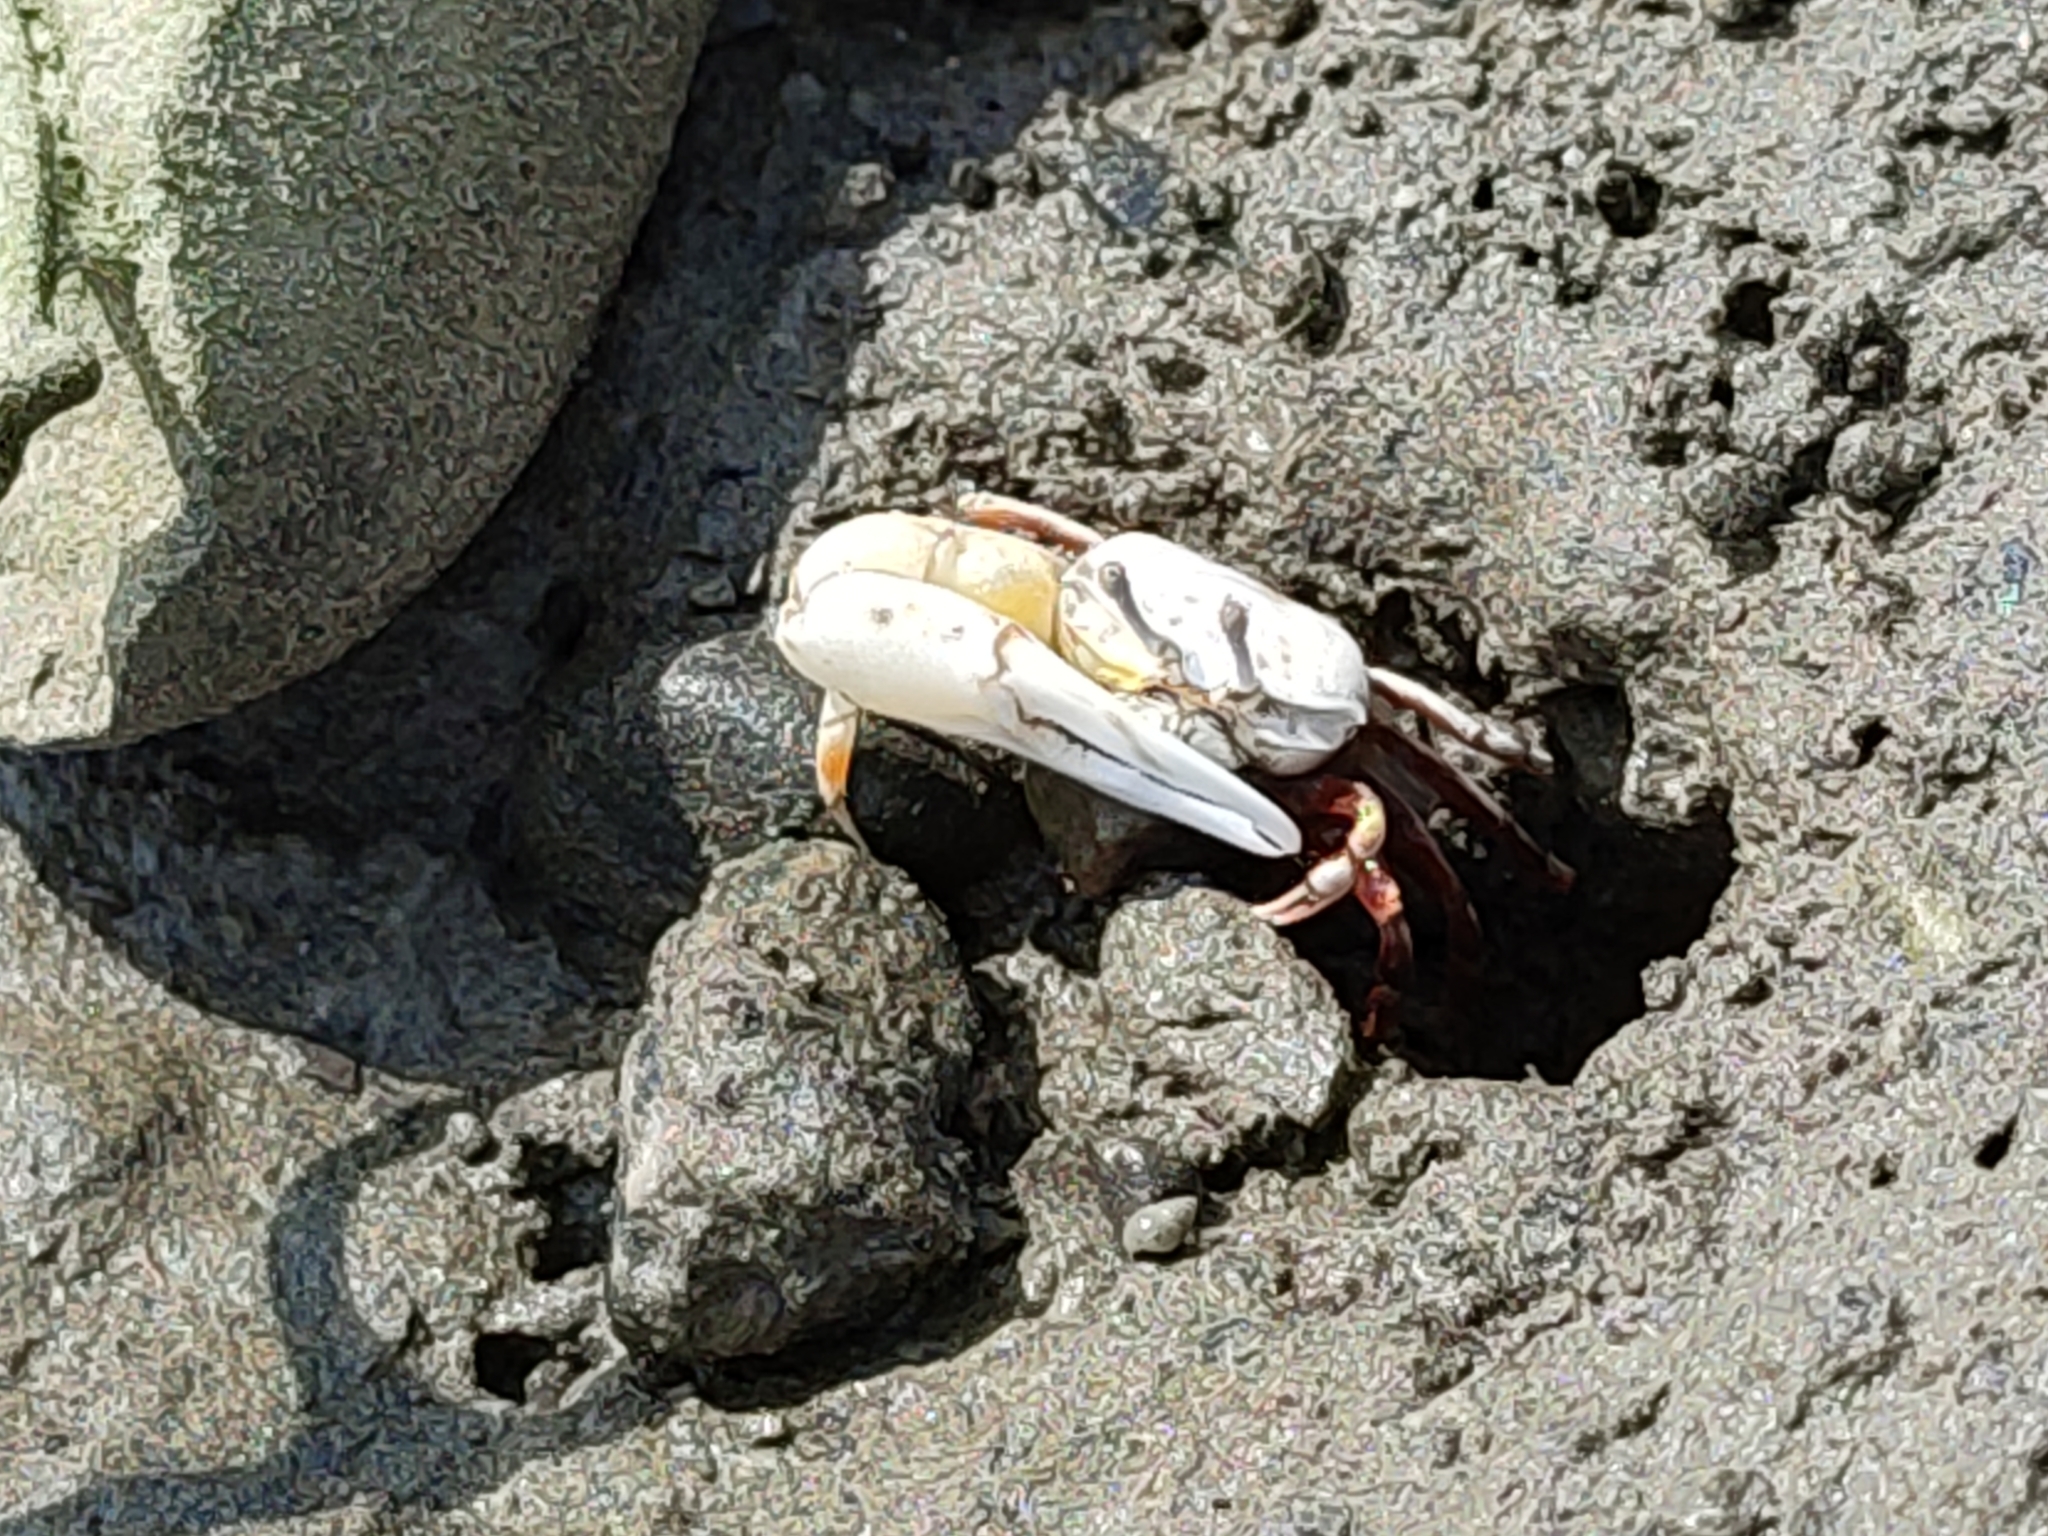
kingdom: Animalia
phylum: Arthropoda
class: Malacostraca
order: Decapoda
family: Ocypodidae
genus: Austruca
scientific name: Austruca lactea
